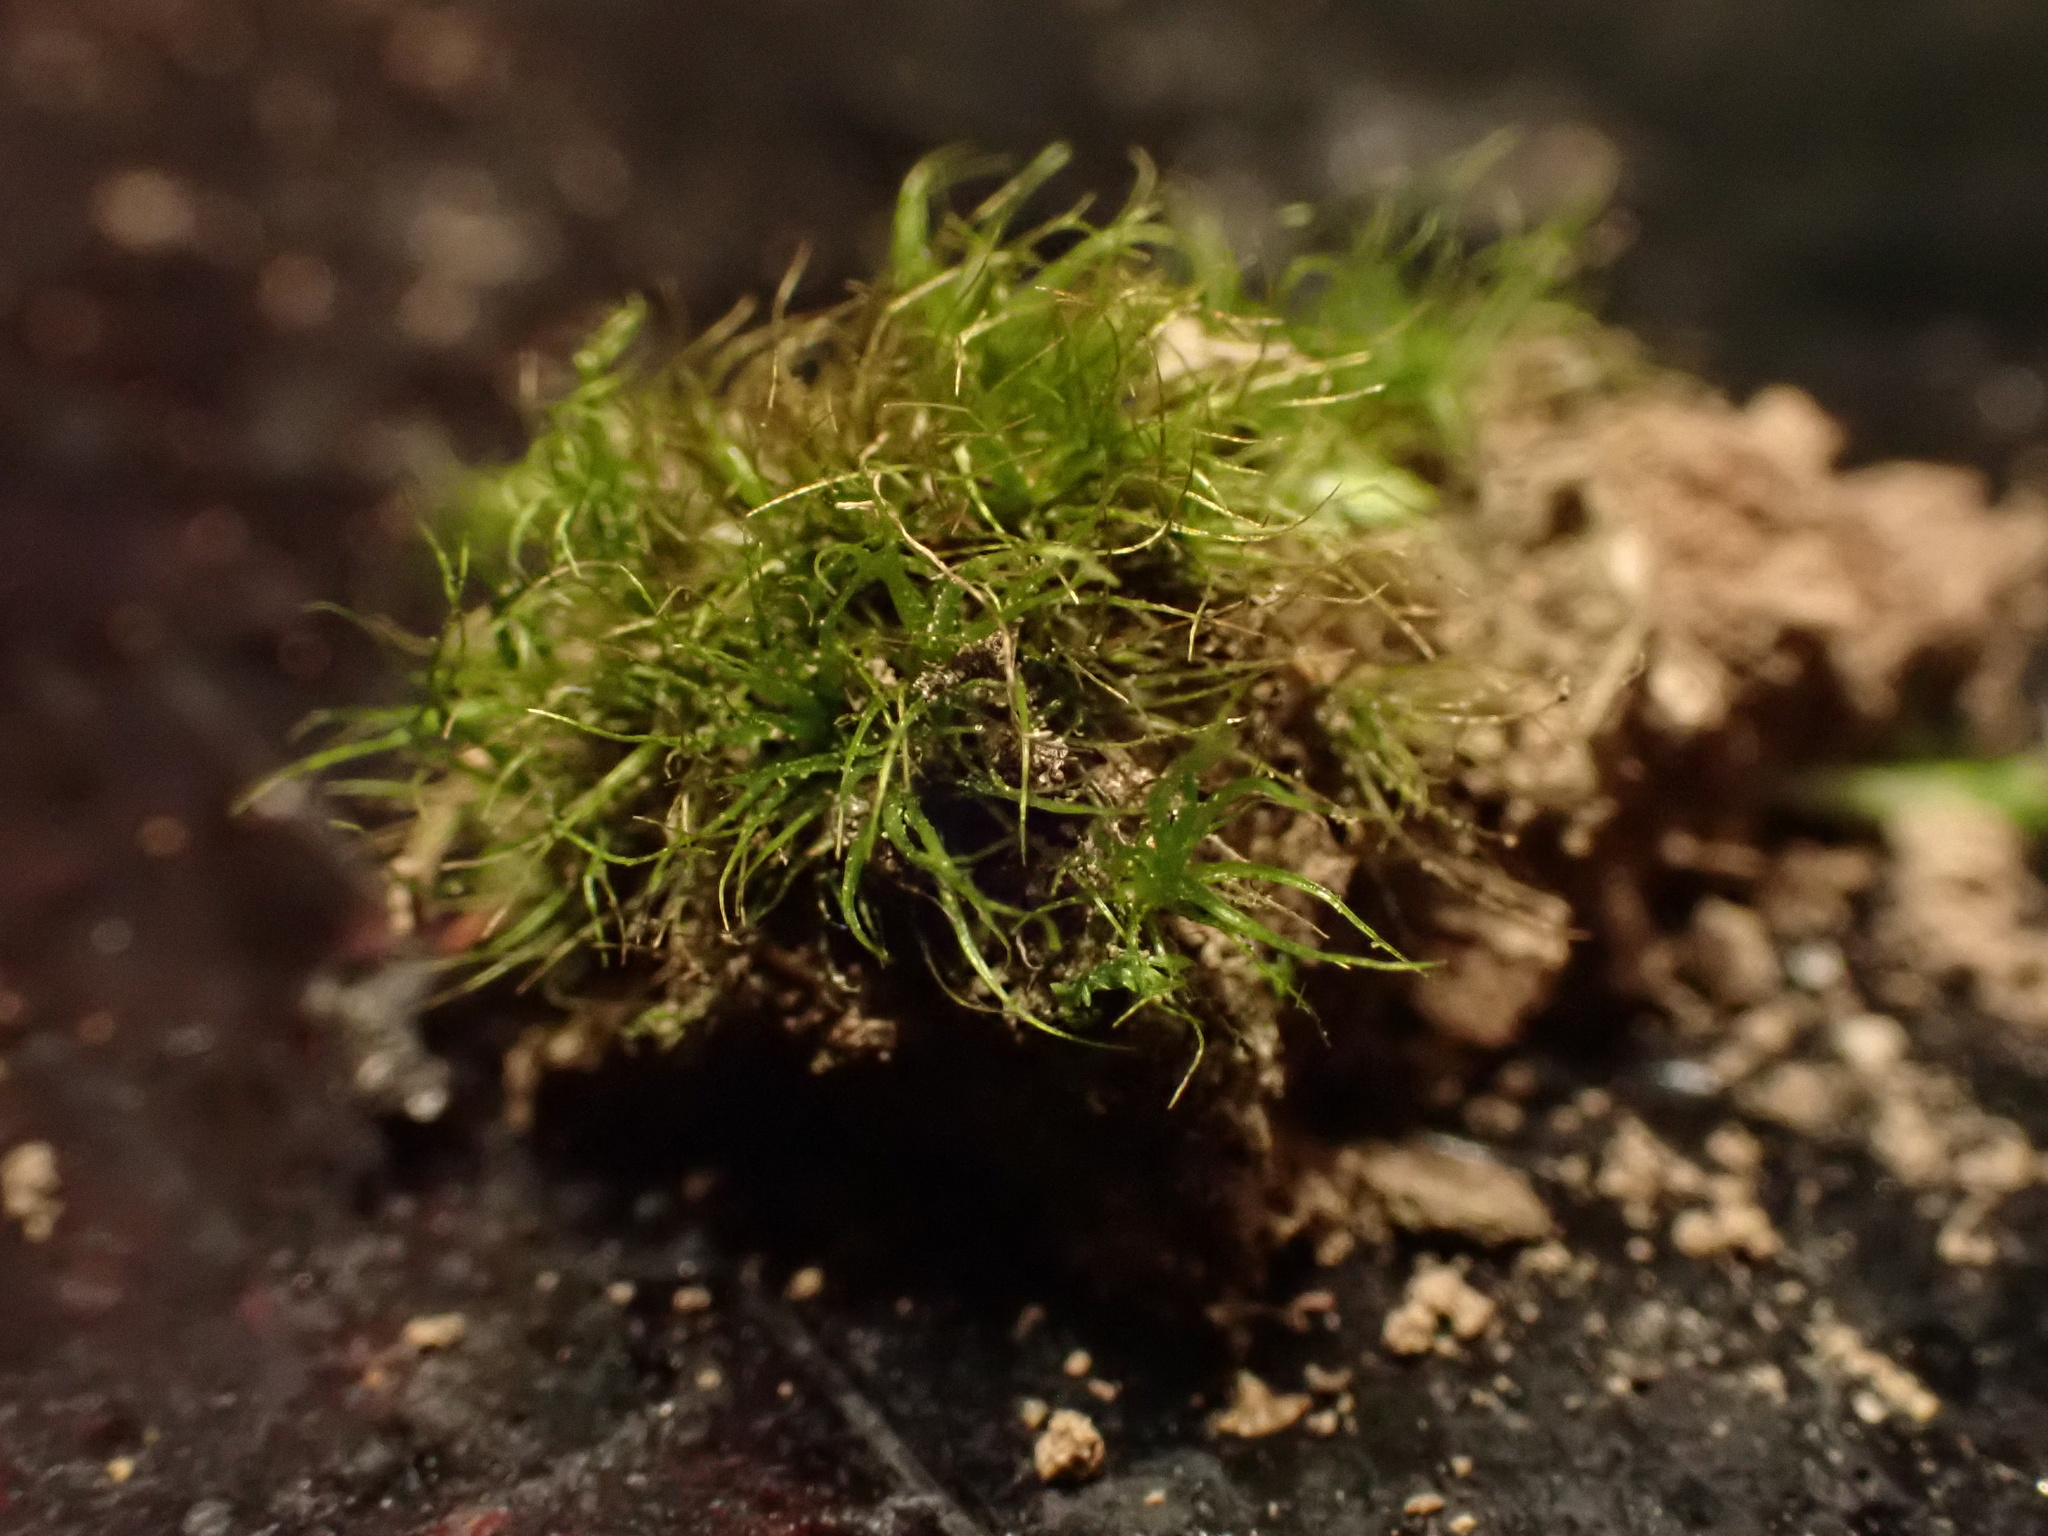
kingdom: Plantae
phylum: Bryophyta
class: Bryopsida
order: Dicranales
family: Ditrichaceae
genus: Ditrichum
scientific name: Ditrichum pallidum
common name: Pale cow-hair moss
